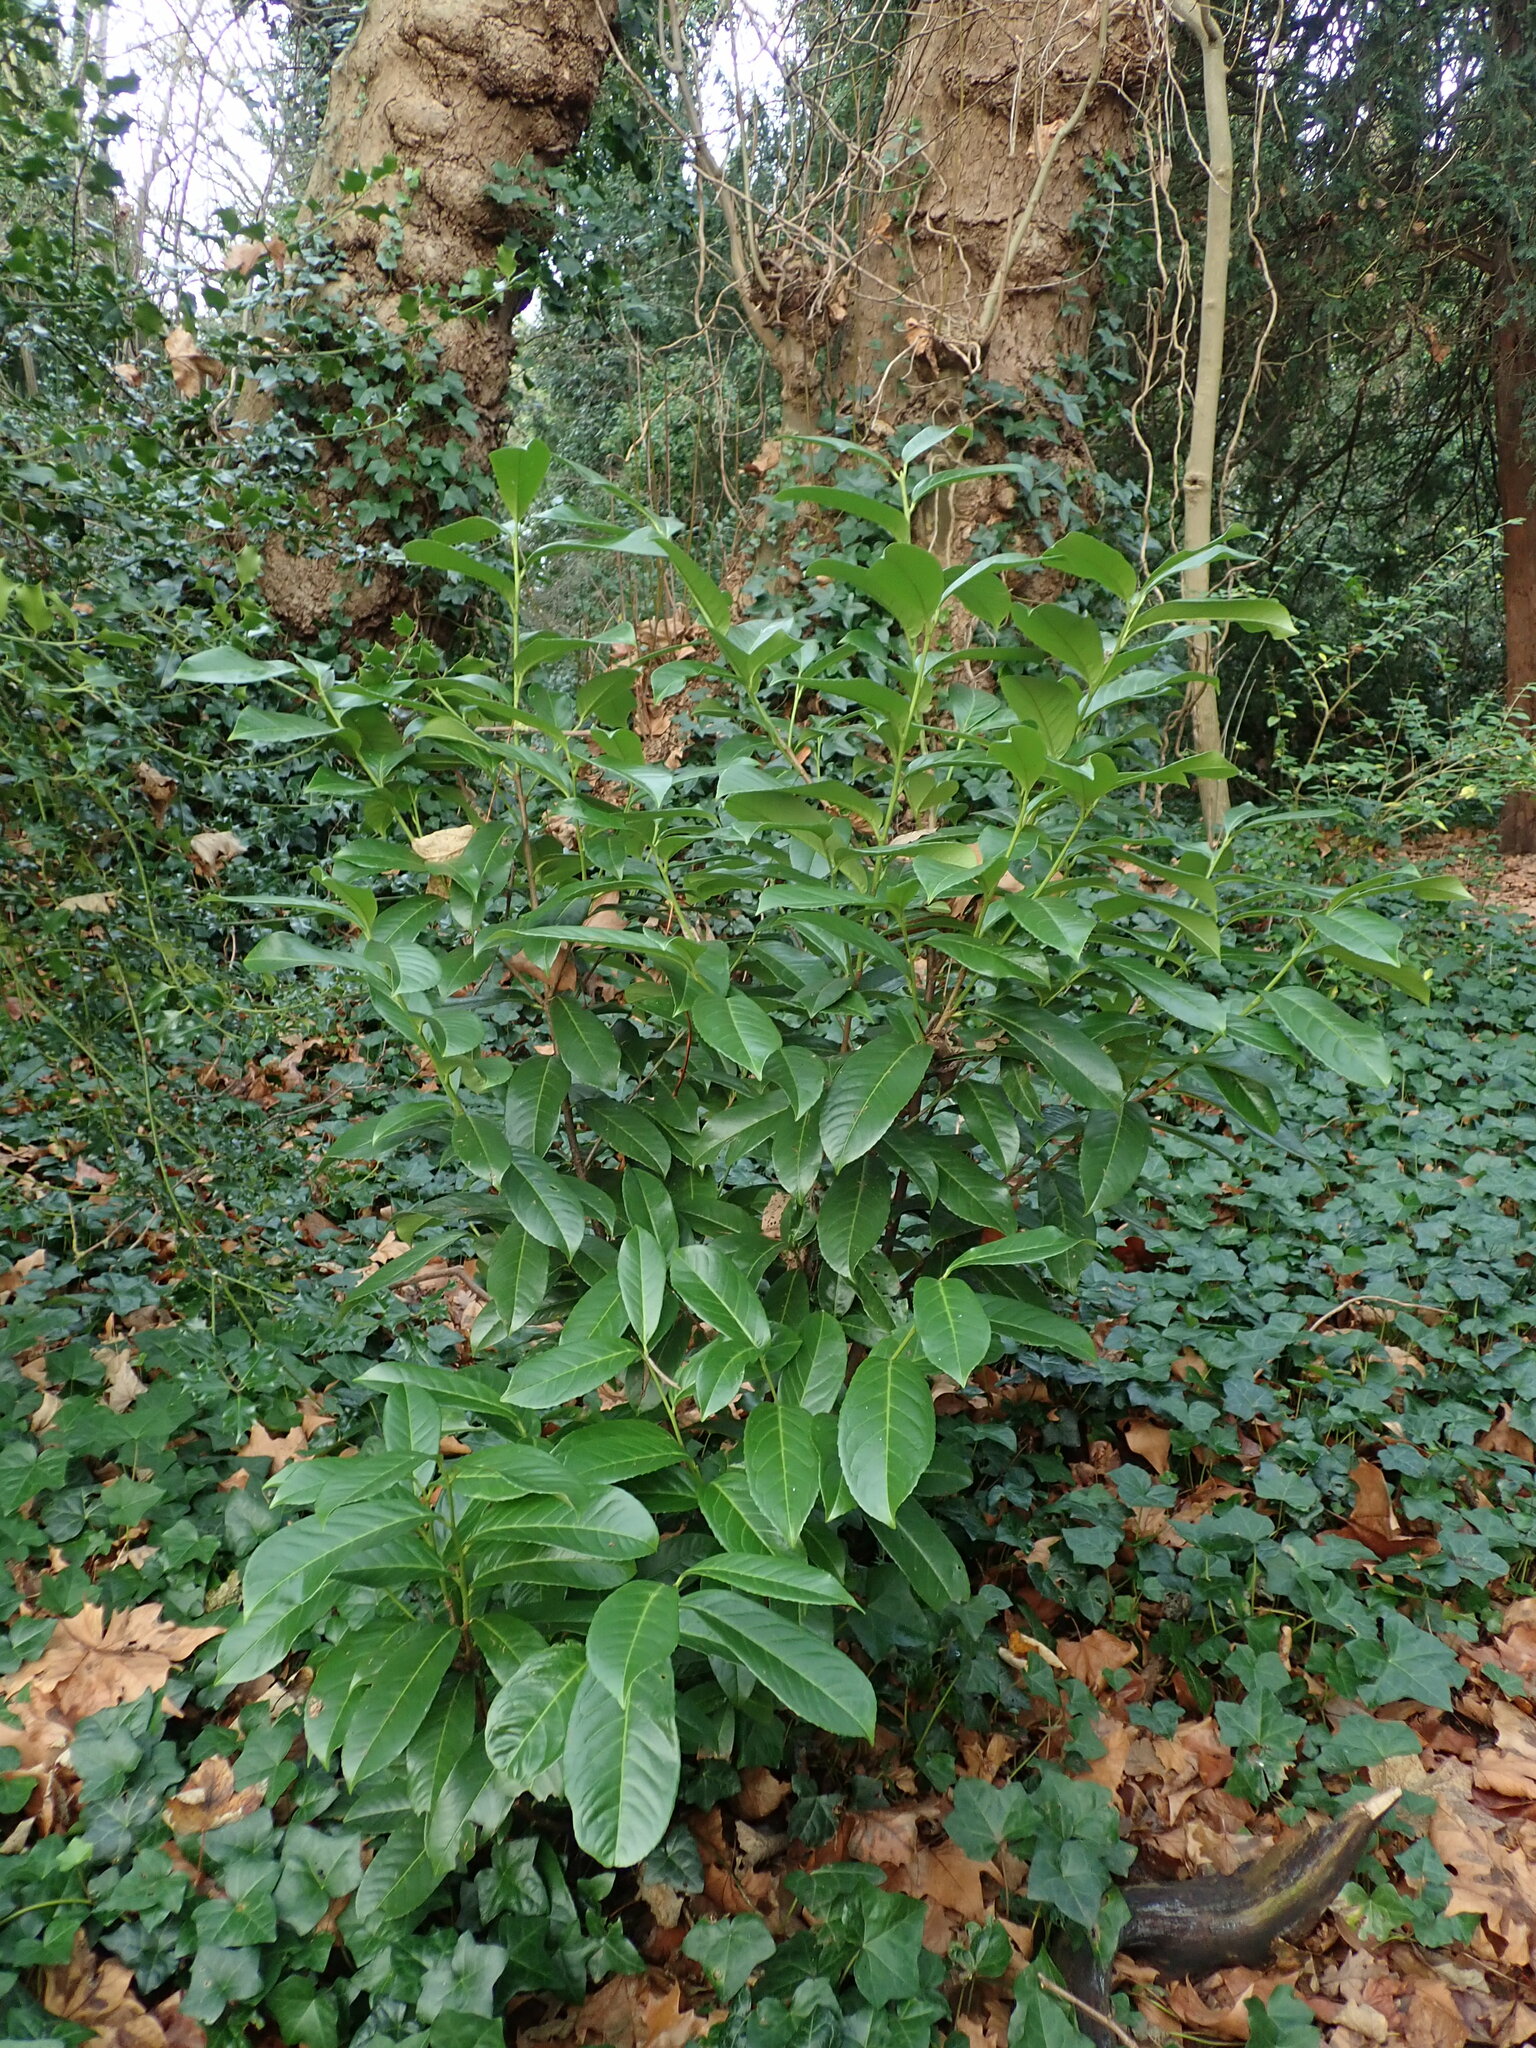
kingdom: Plantae
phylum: Tracheophyta
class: Magnoliopsida
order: Rosales
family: Rosaceae
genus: Prunus
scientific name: Prunus laurocerasus
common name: Cherry laurel
